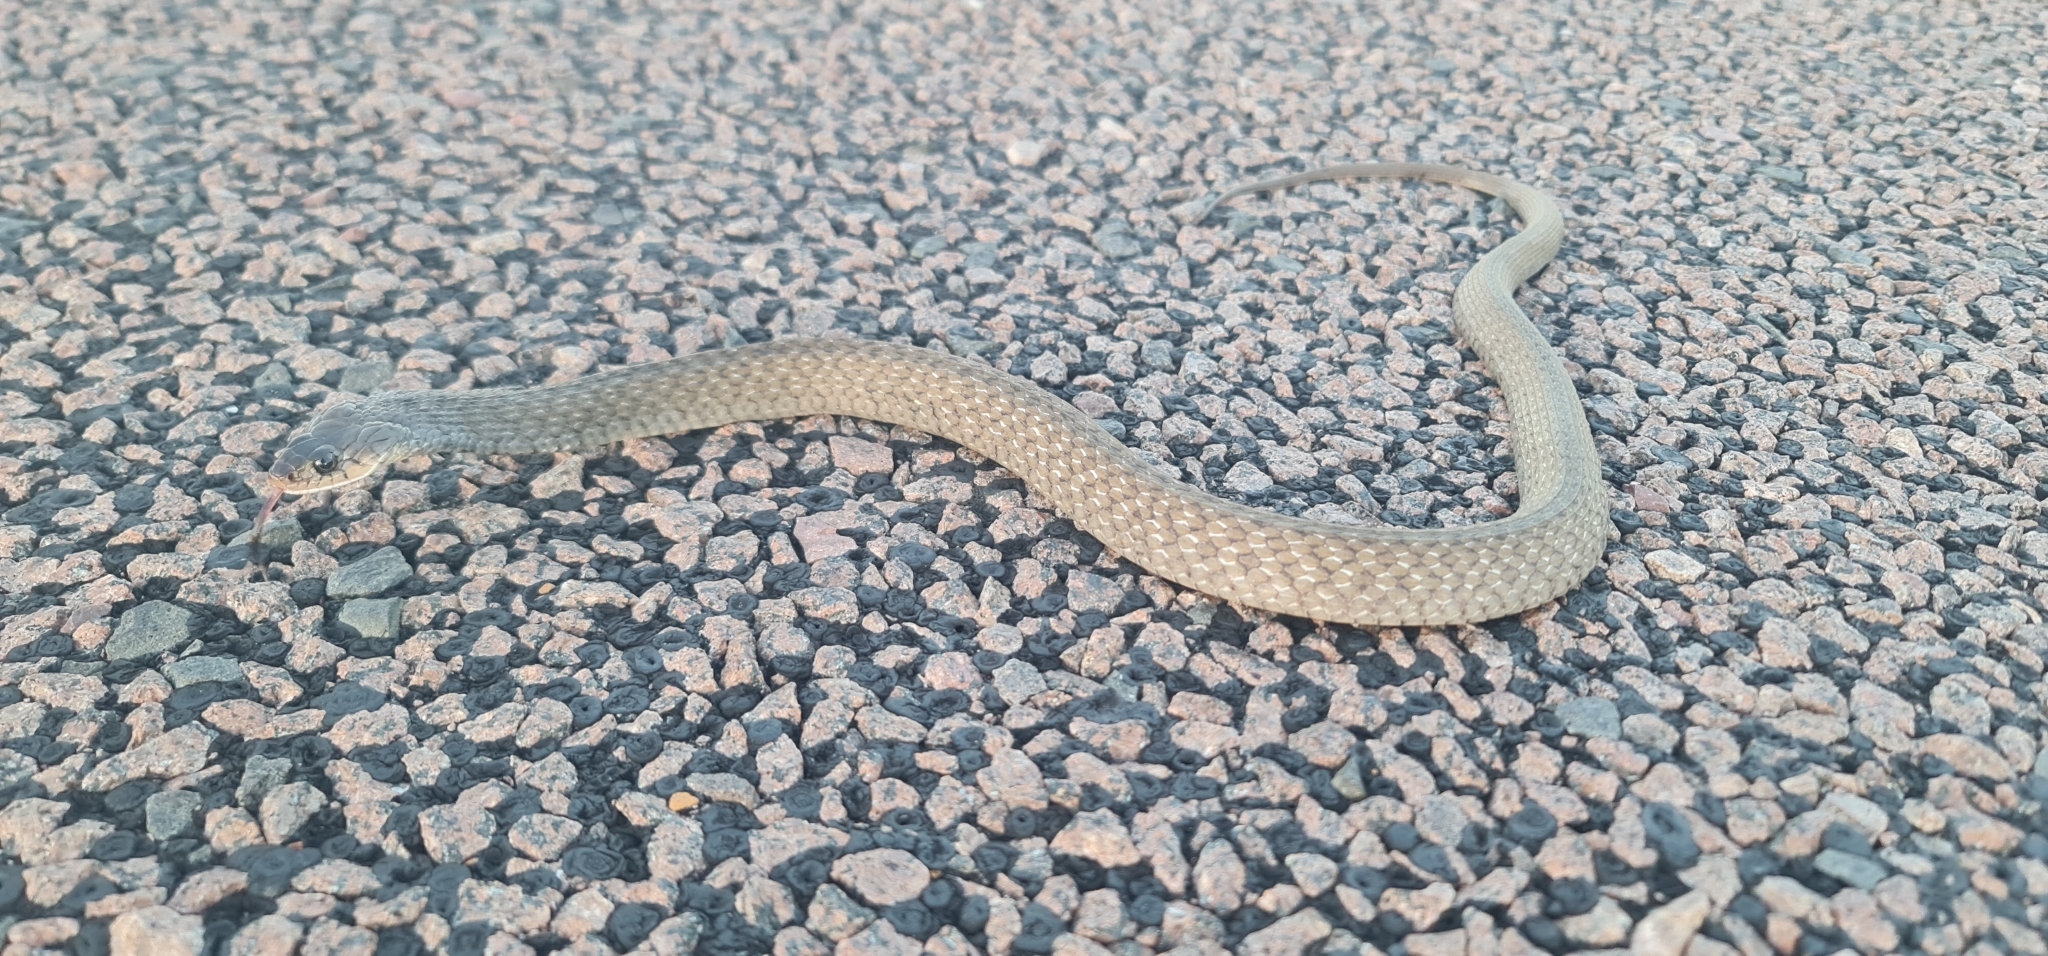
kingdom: Animalia
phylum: Chordata
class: Squamata
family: Colubridae
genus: Tropidonophis
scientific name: Tropidonophis mairii
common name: Common keelback
